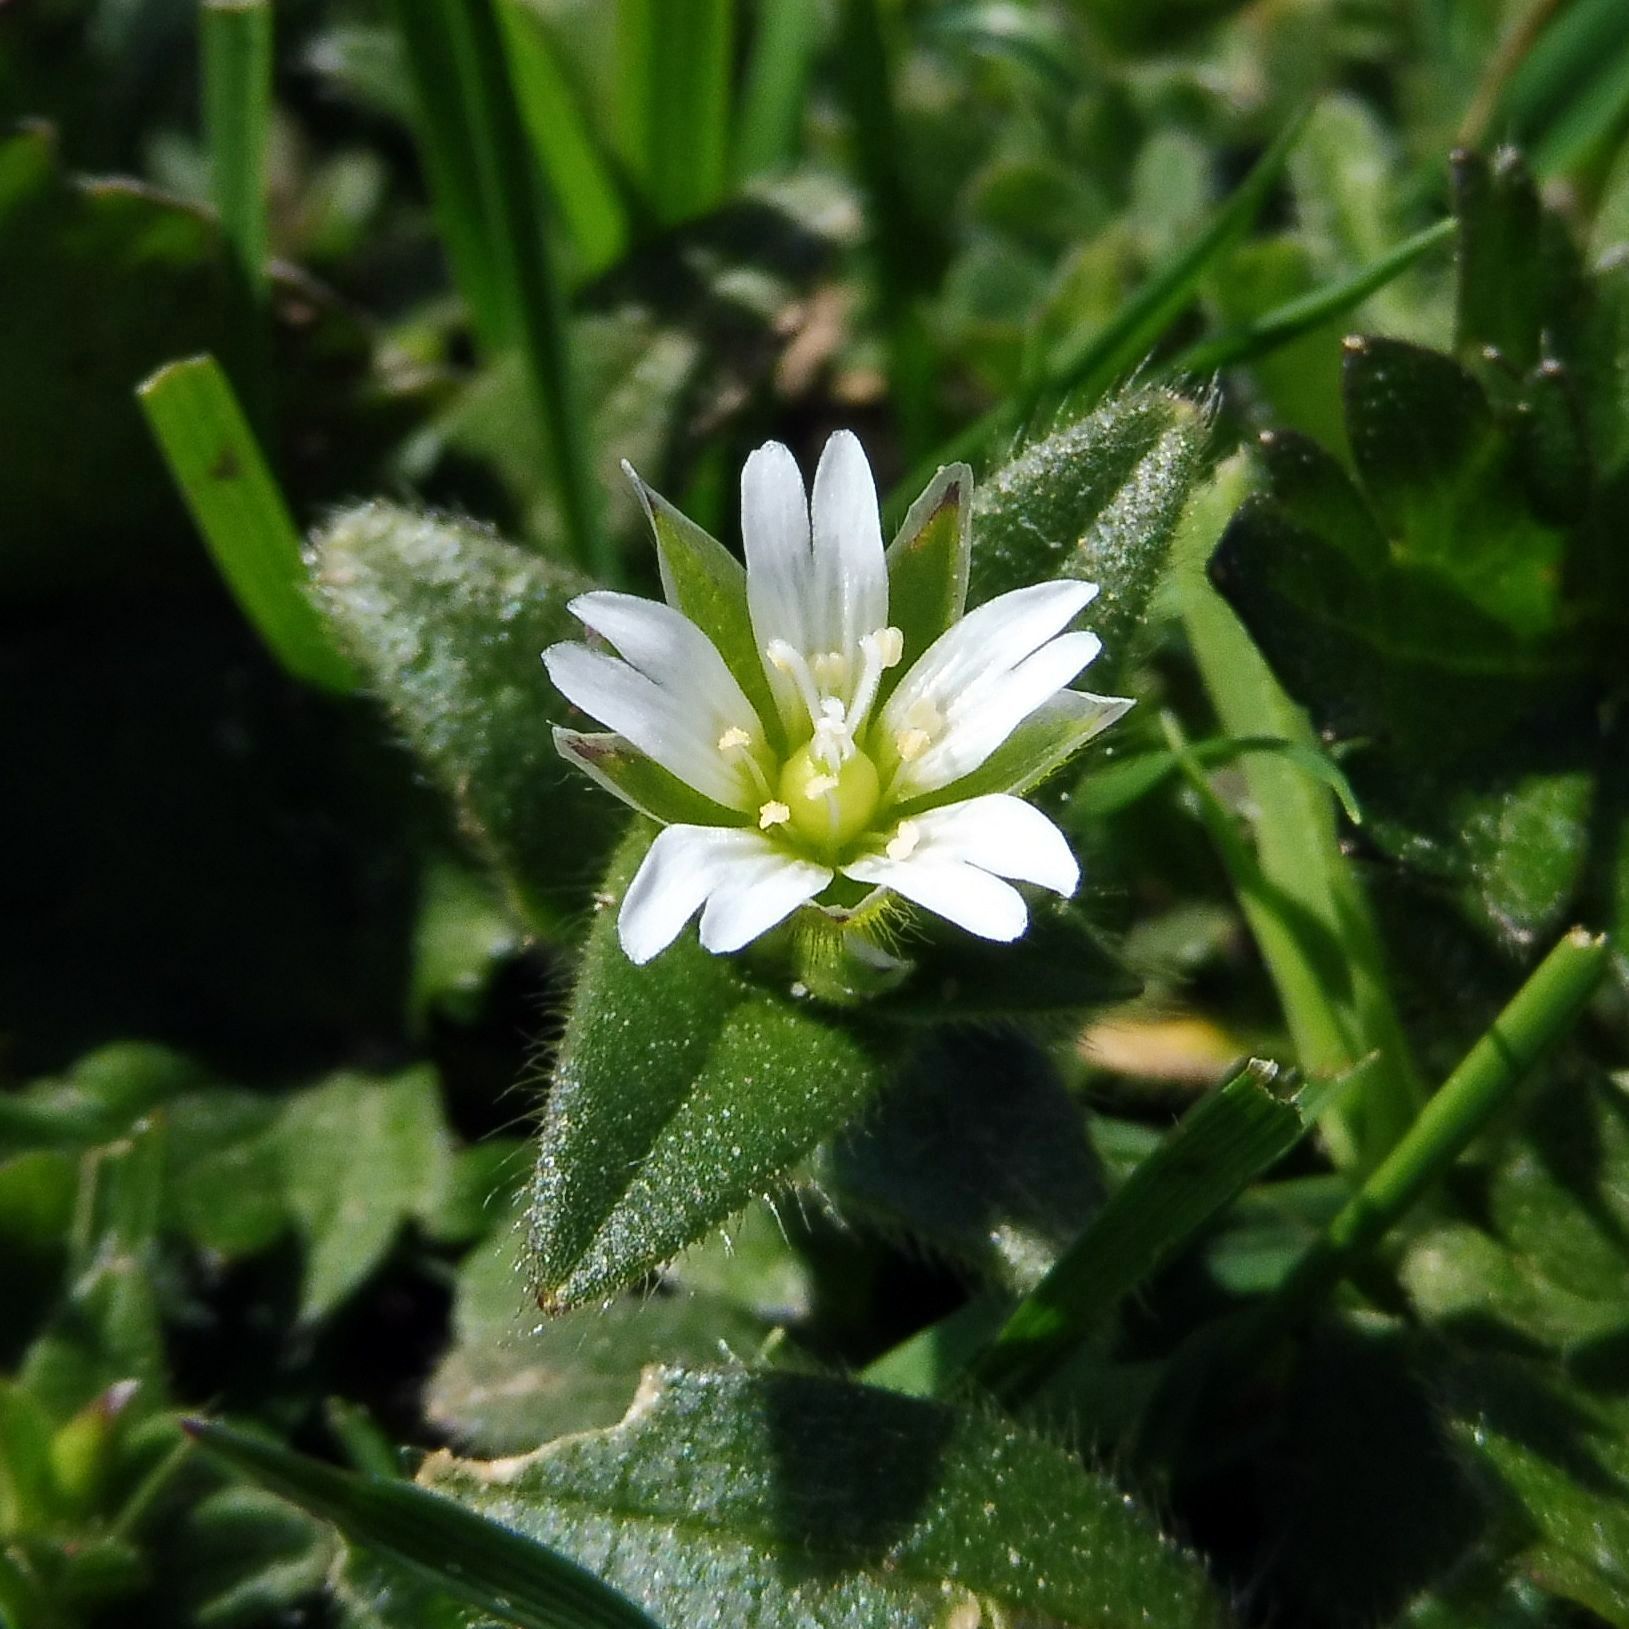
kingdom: Plantae
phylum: Tracheophyta
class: Magnoliopsida
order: Caryophyllales
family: Caryophyllaceae
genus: Cerastium
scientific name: Cerastium fontanum
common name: Common mouse-ear
